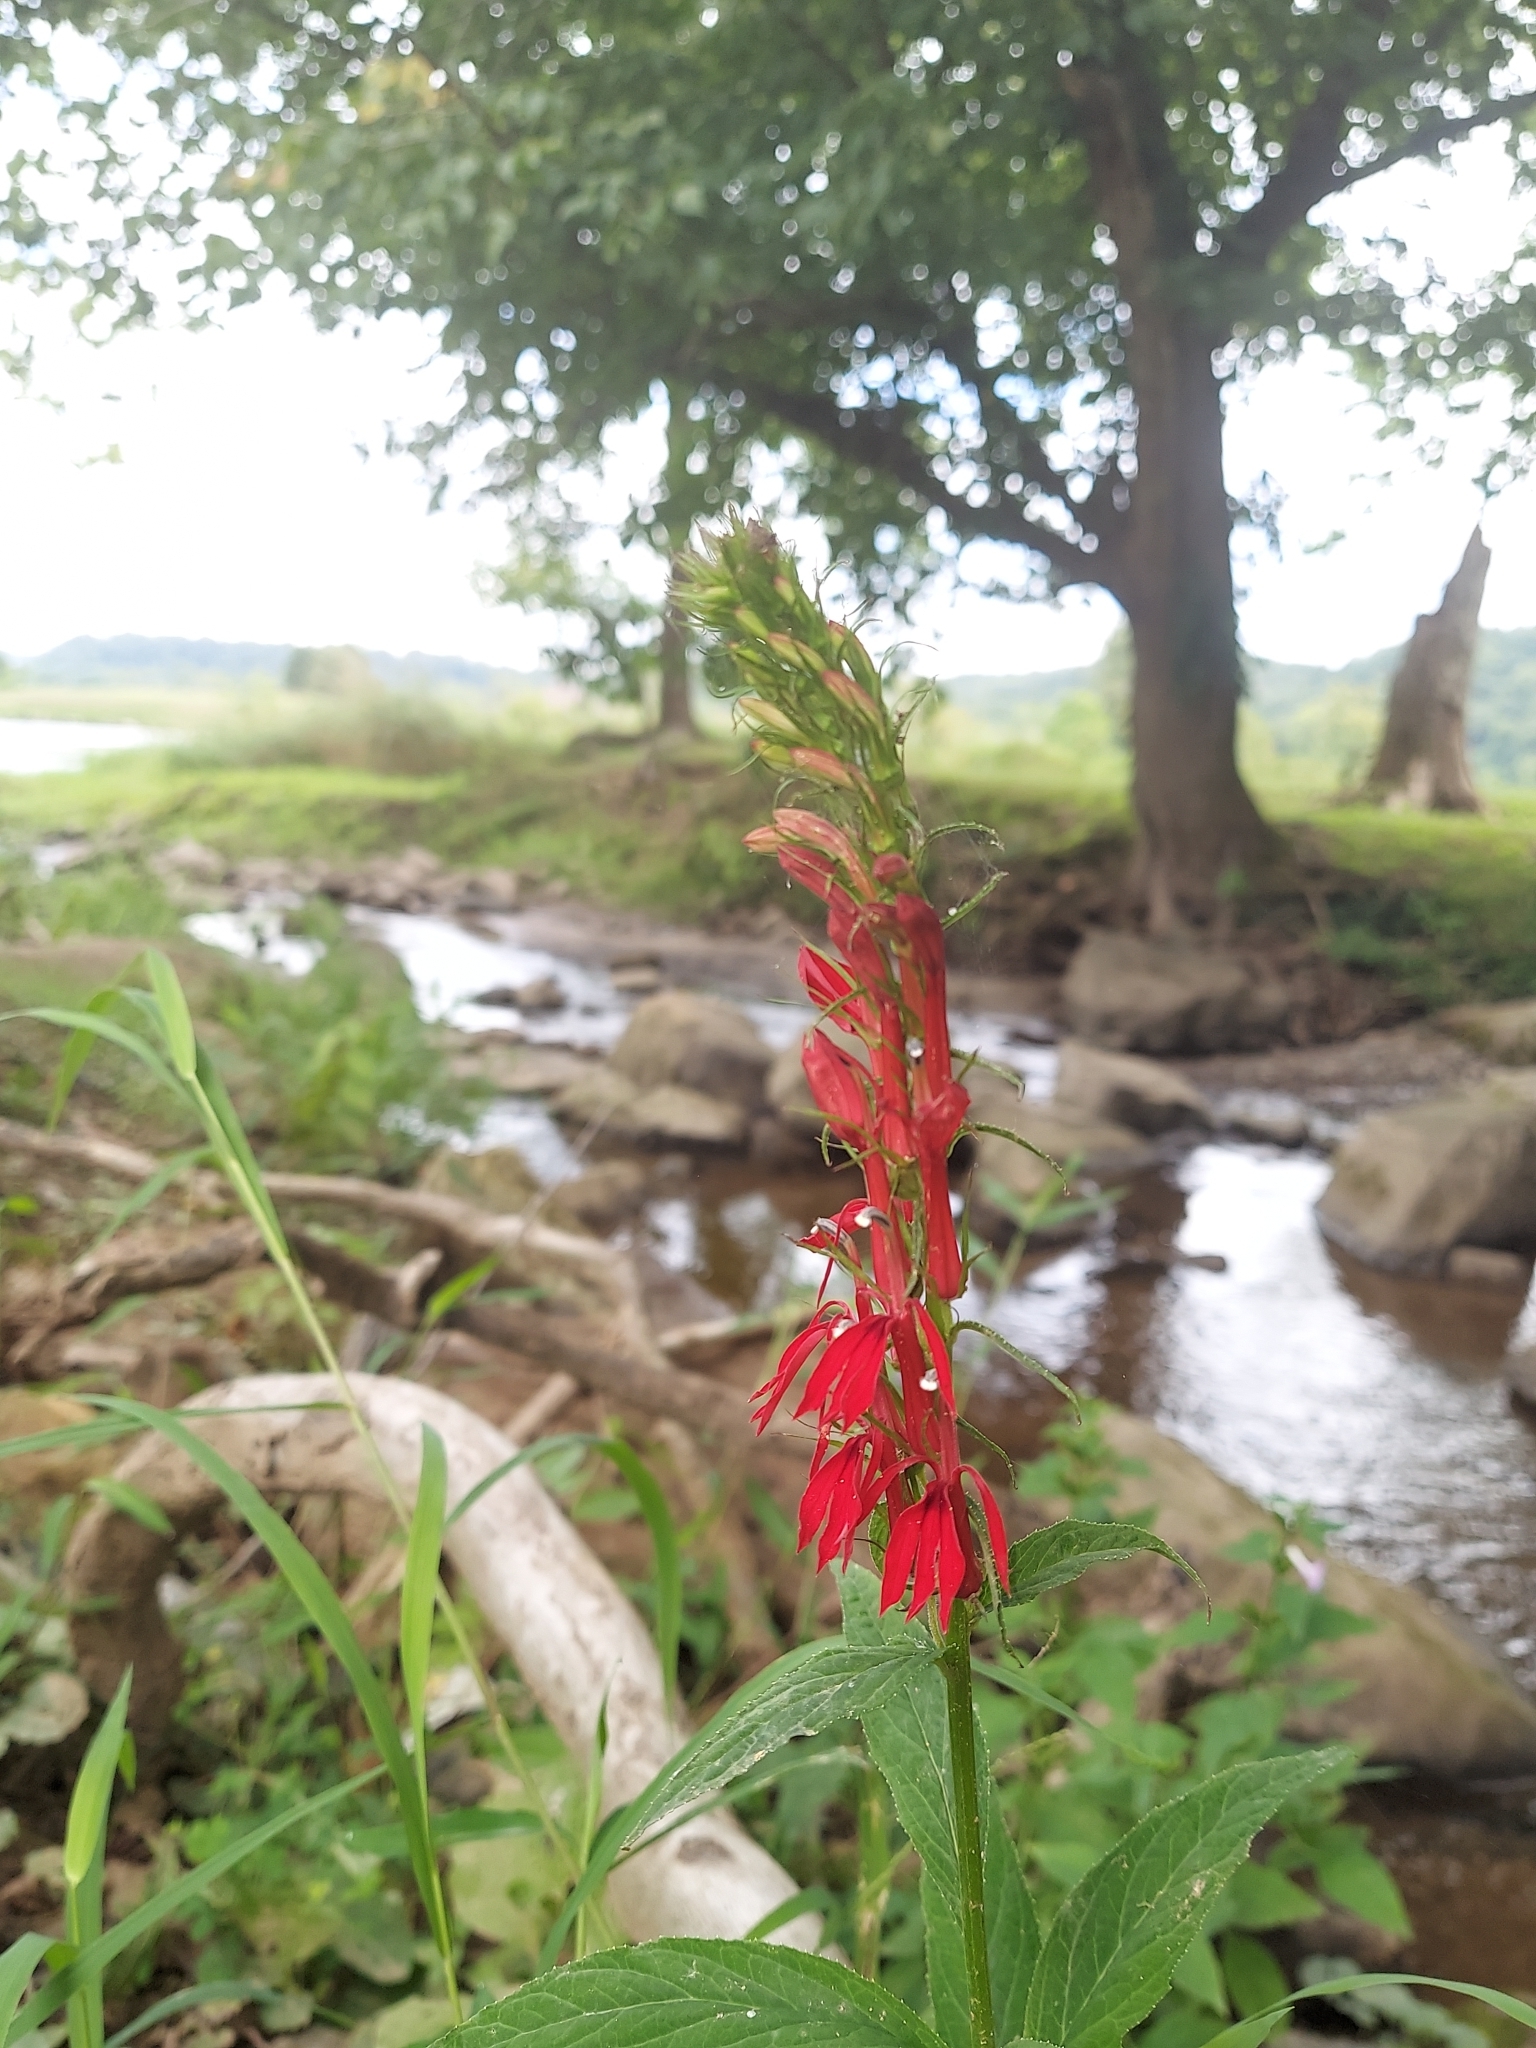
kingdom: Plantae
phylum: Tracheophyta
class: Magnoliopsida
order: Asterales
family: Campanulaceae
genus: Lobelia
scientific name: Lobelia cardinalis
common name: Cardinal flower
